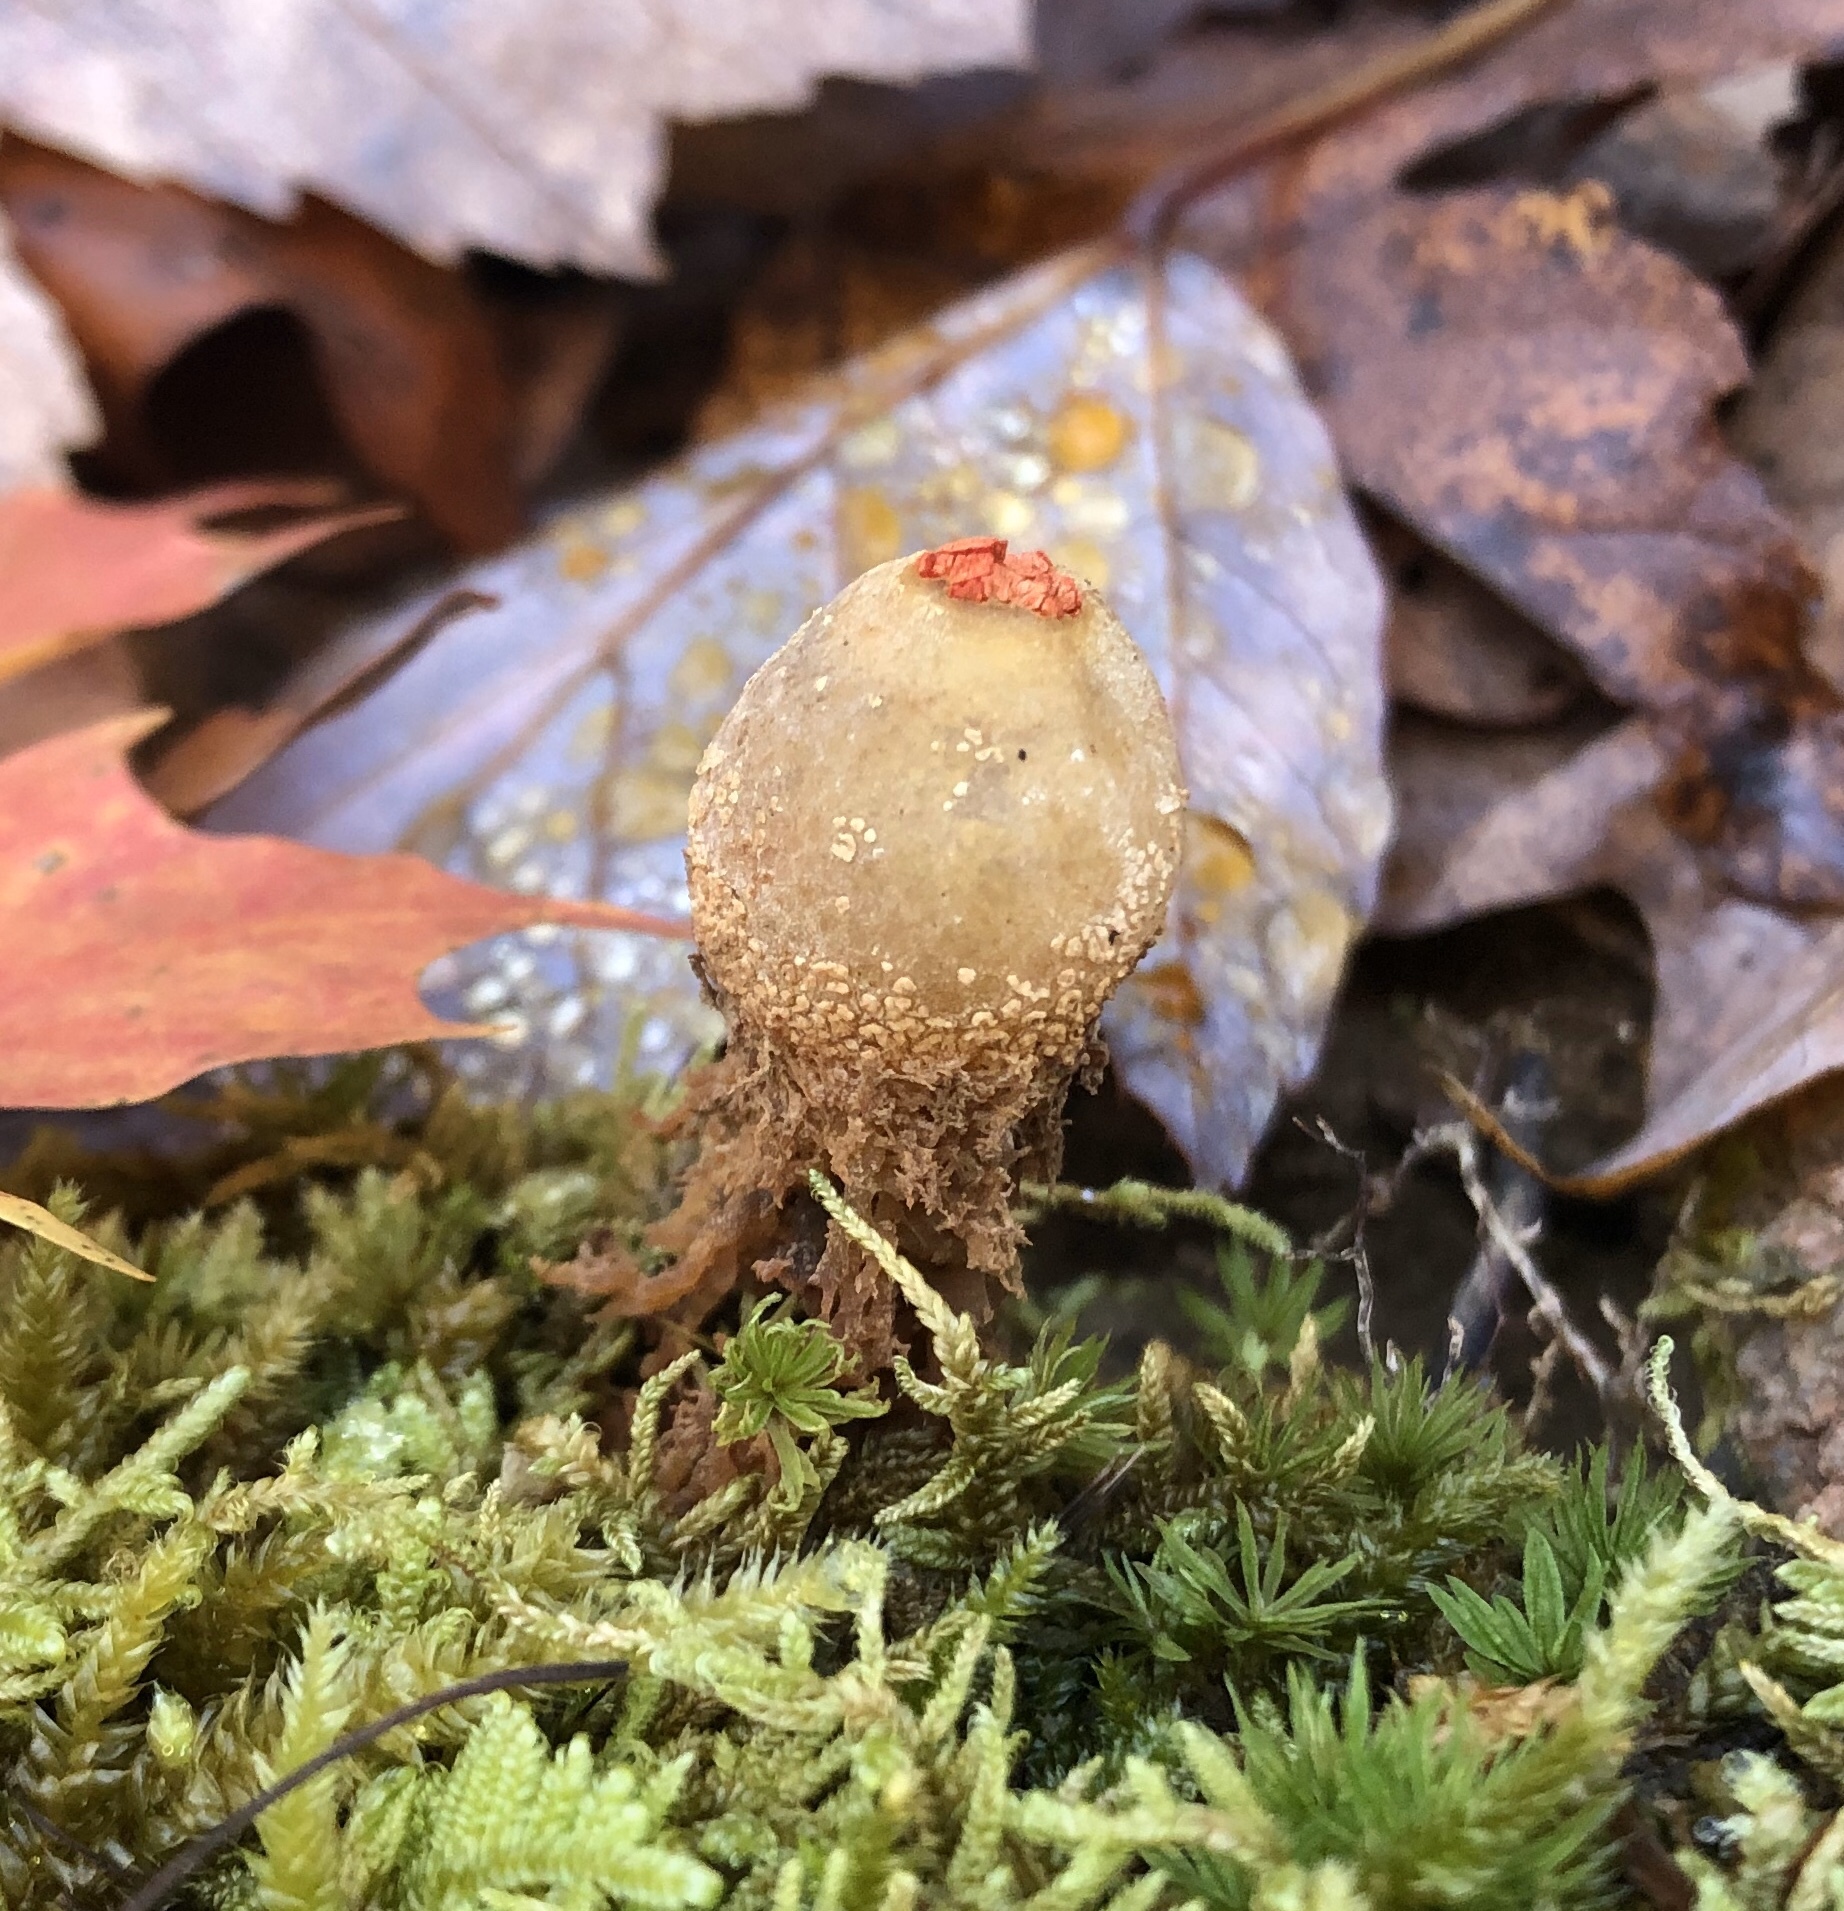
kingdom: Fungi
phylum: Basidiomycota
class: Agaricomycetes
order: Boletales
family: Calostomataceae
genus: Calostoma
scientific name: Calostoma ravenelii
